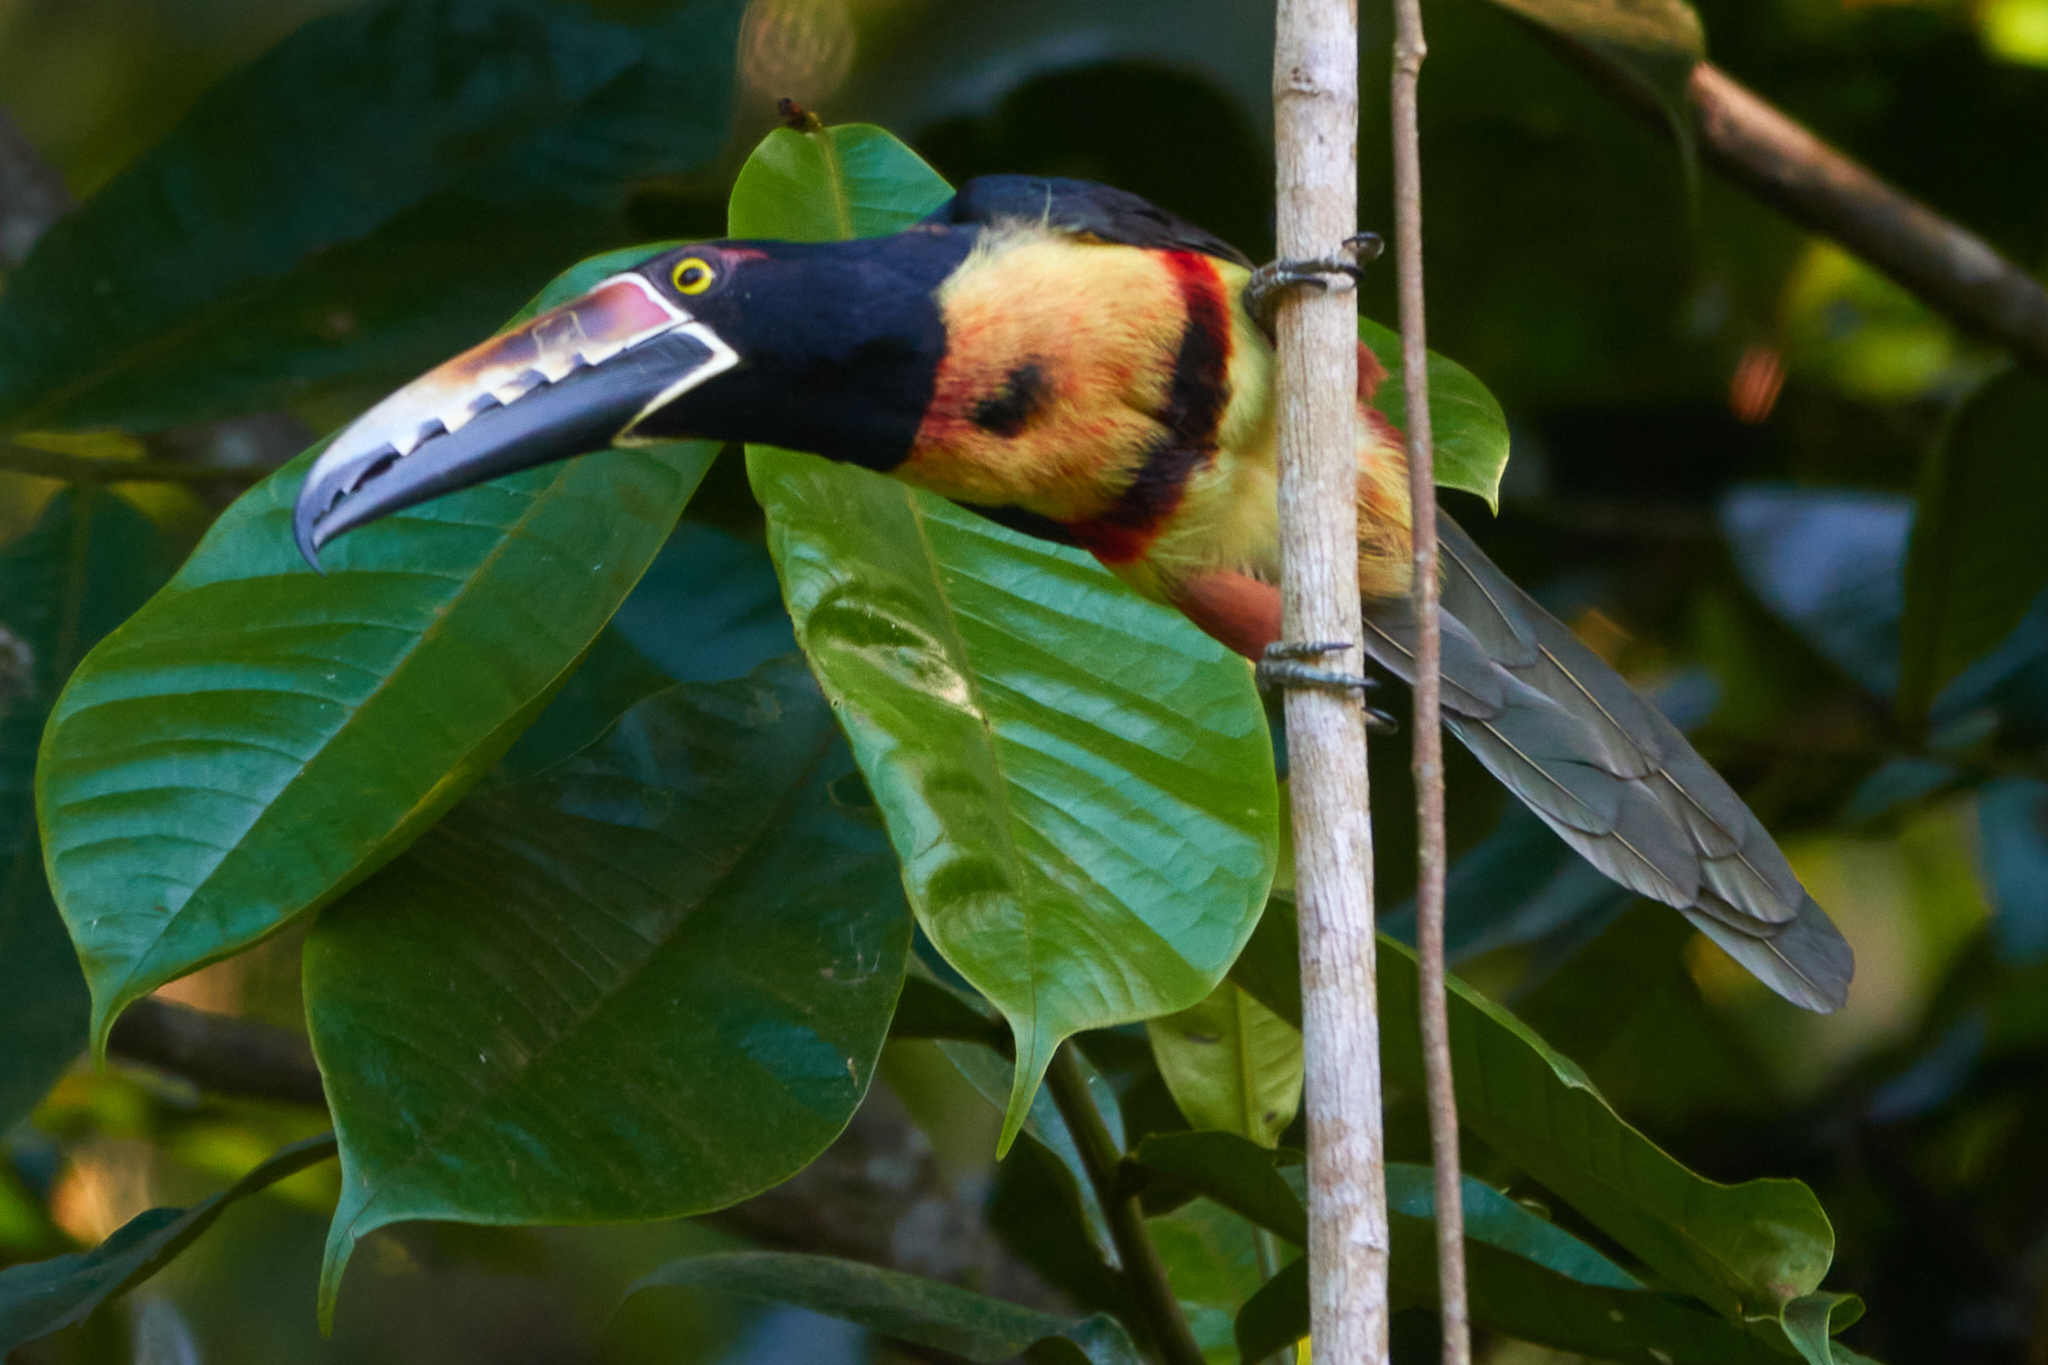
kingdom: Animalia
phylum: Chordata
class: Aves
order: Piciformes
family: Ramphastidae
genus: Pteroglossus
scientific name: Pteroglossus torquatus
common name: Collared aracari
